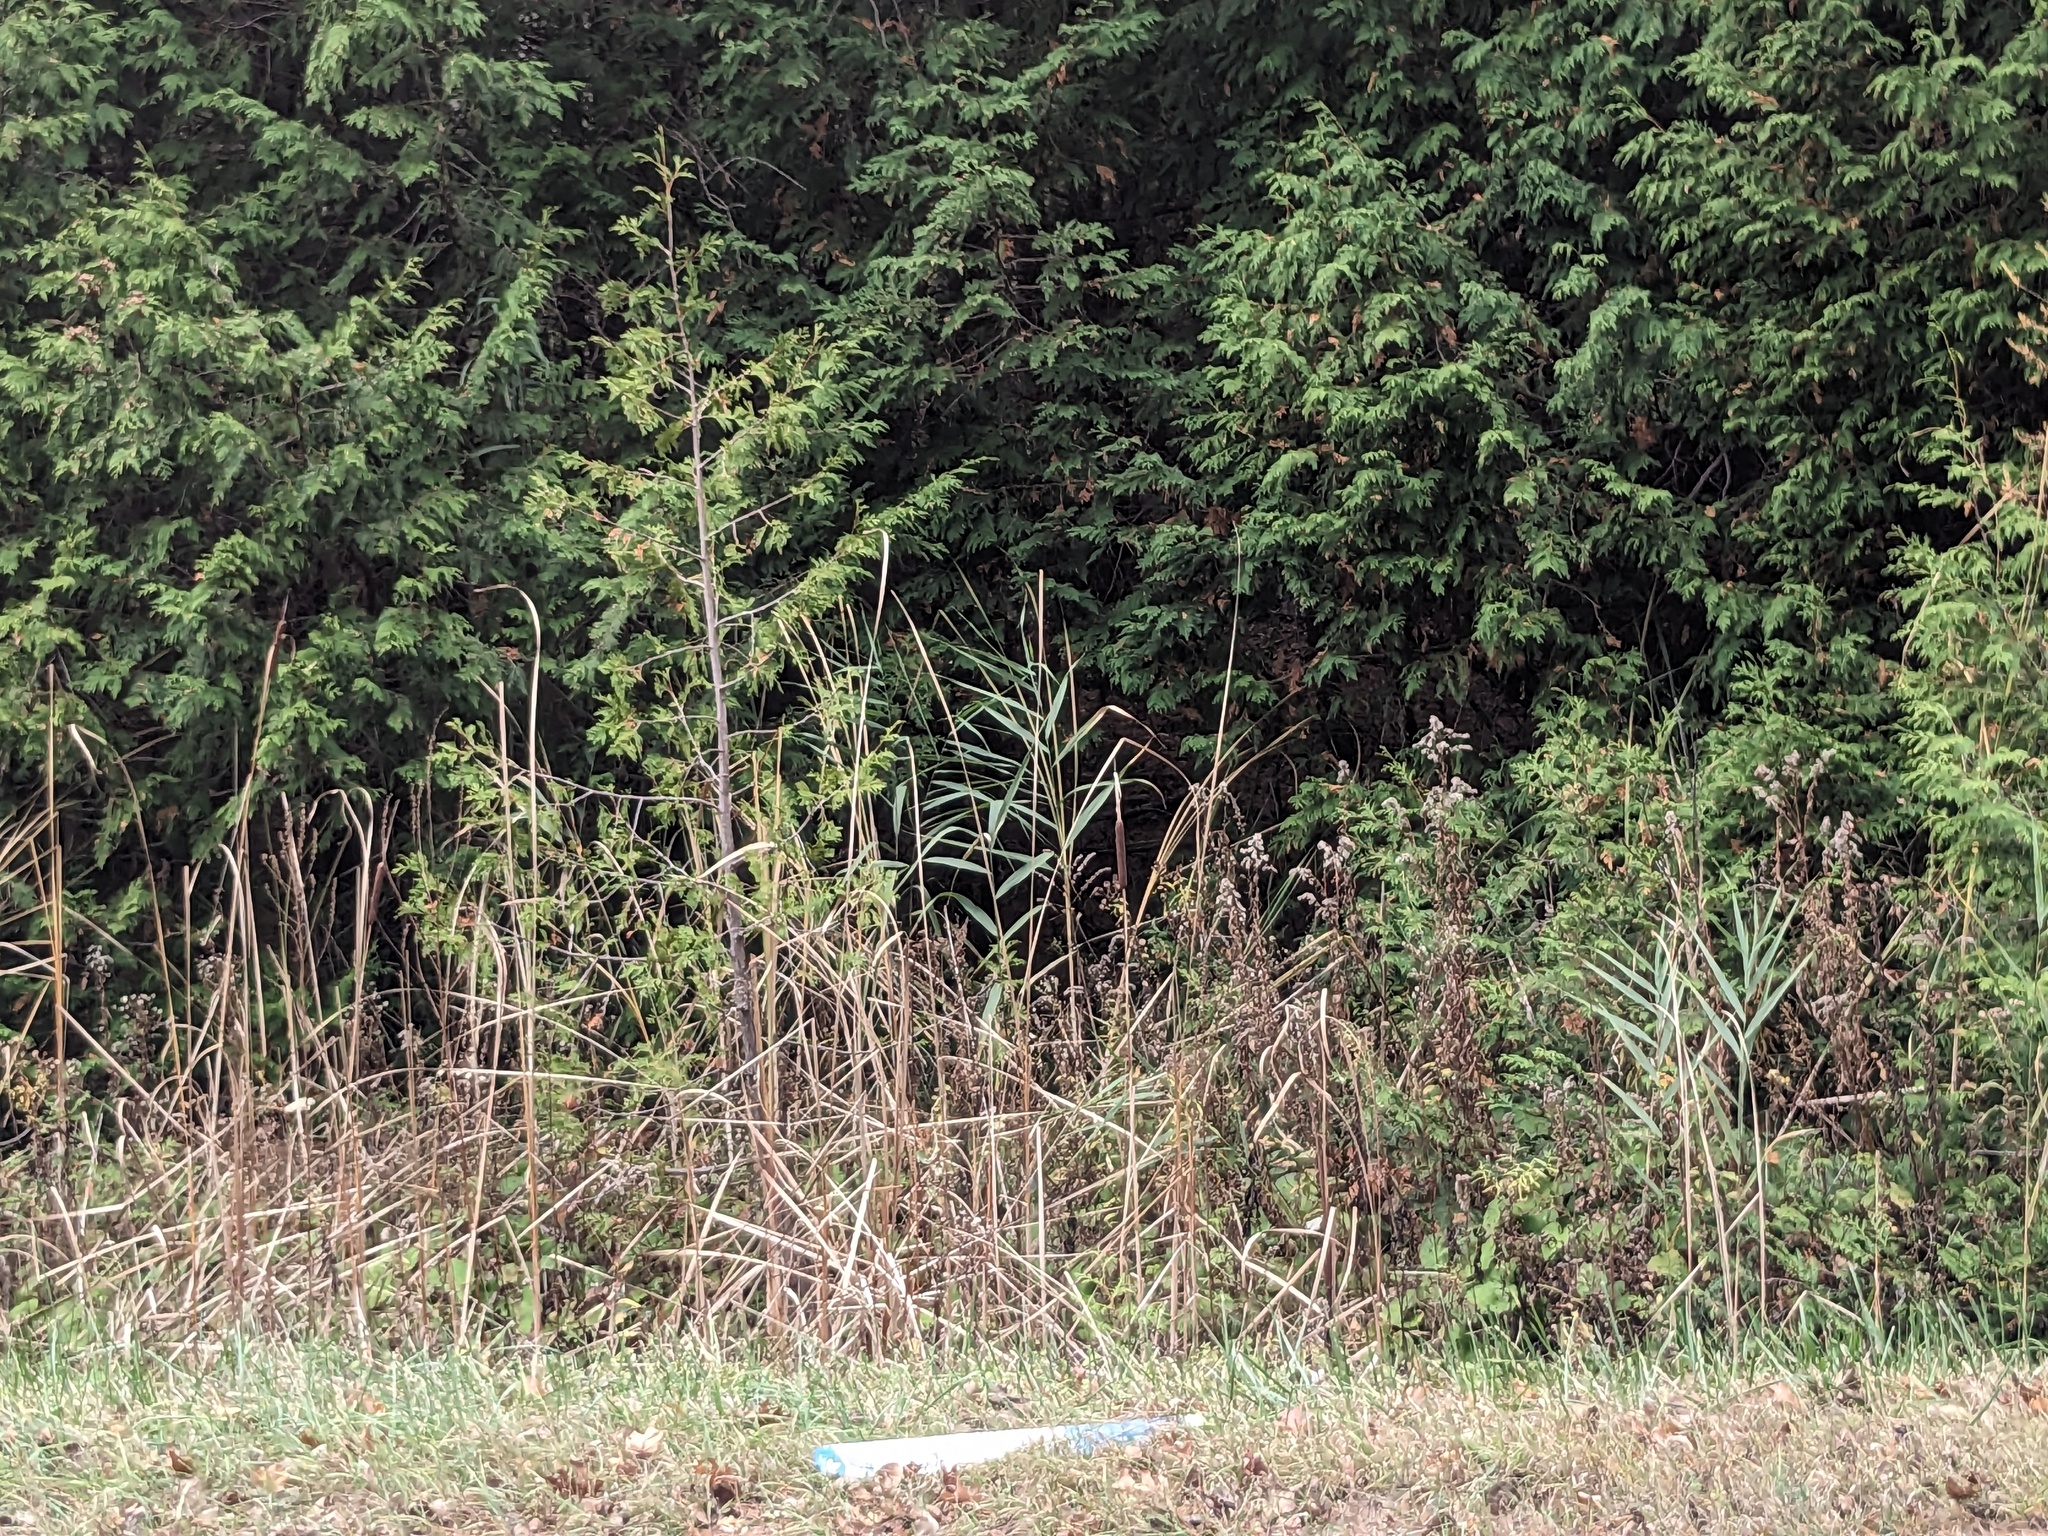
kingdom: Plantae
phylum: Tracheophyta
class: Liliopsida
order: Poales
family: Poaceae
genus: Phragmites
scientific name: Phragmites australis
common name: Common reed
